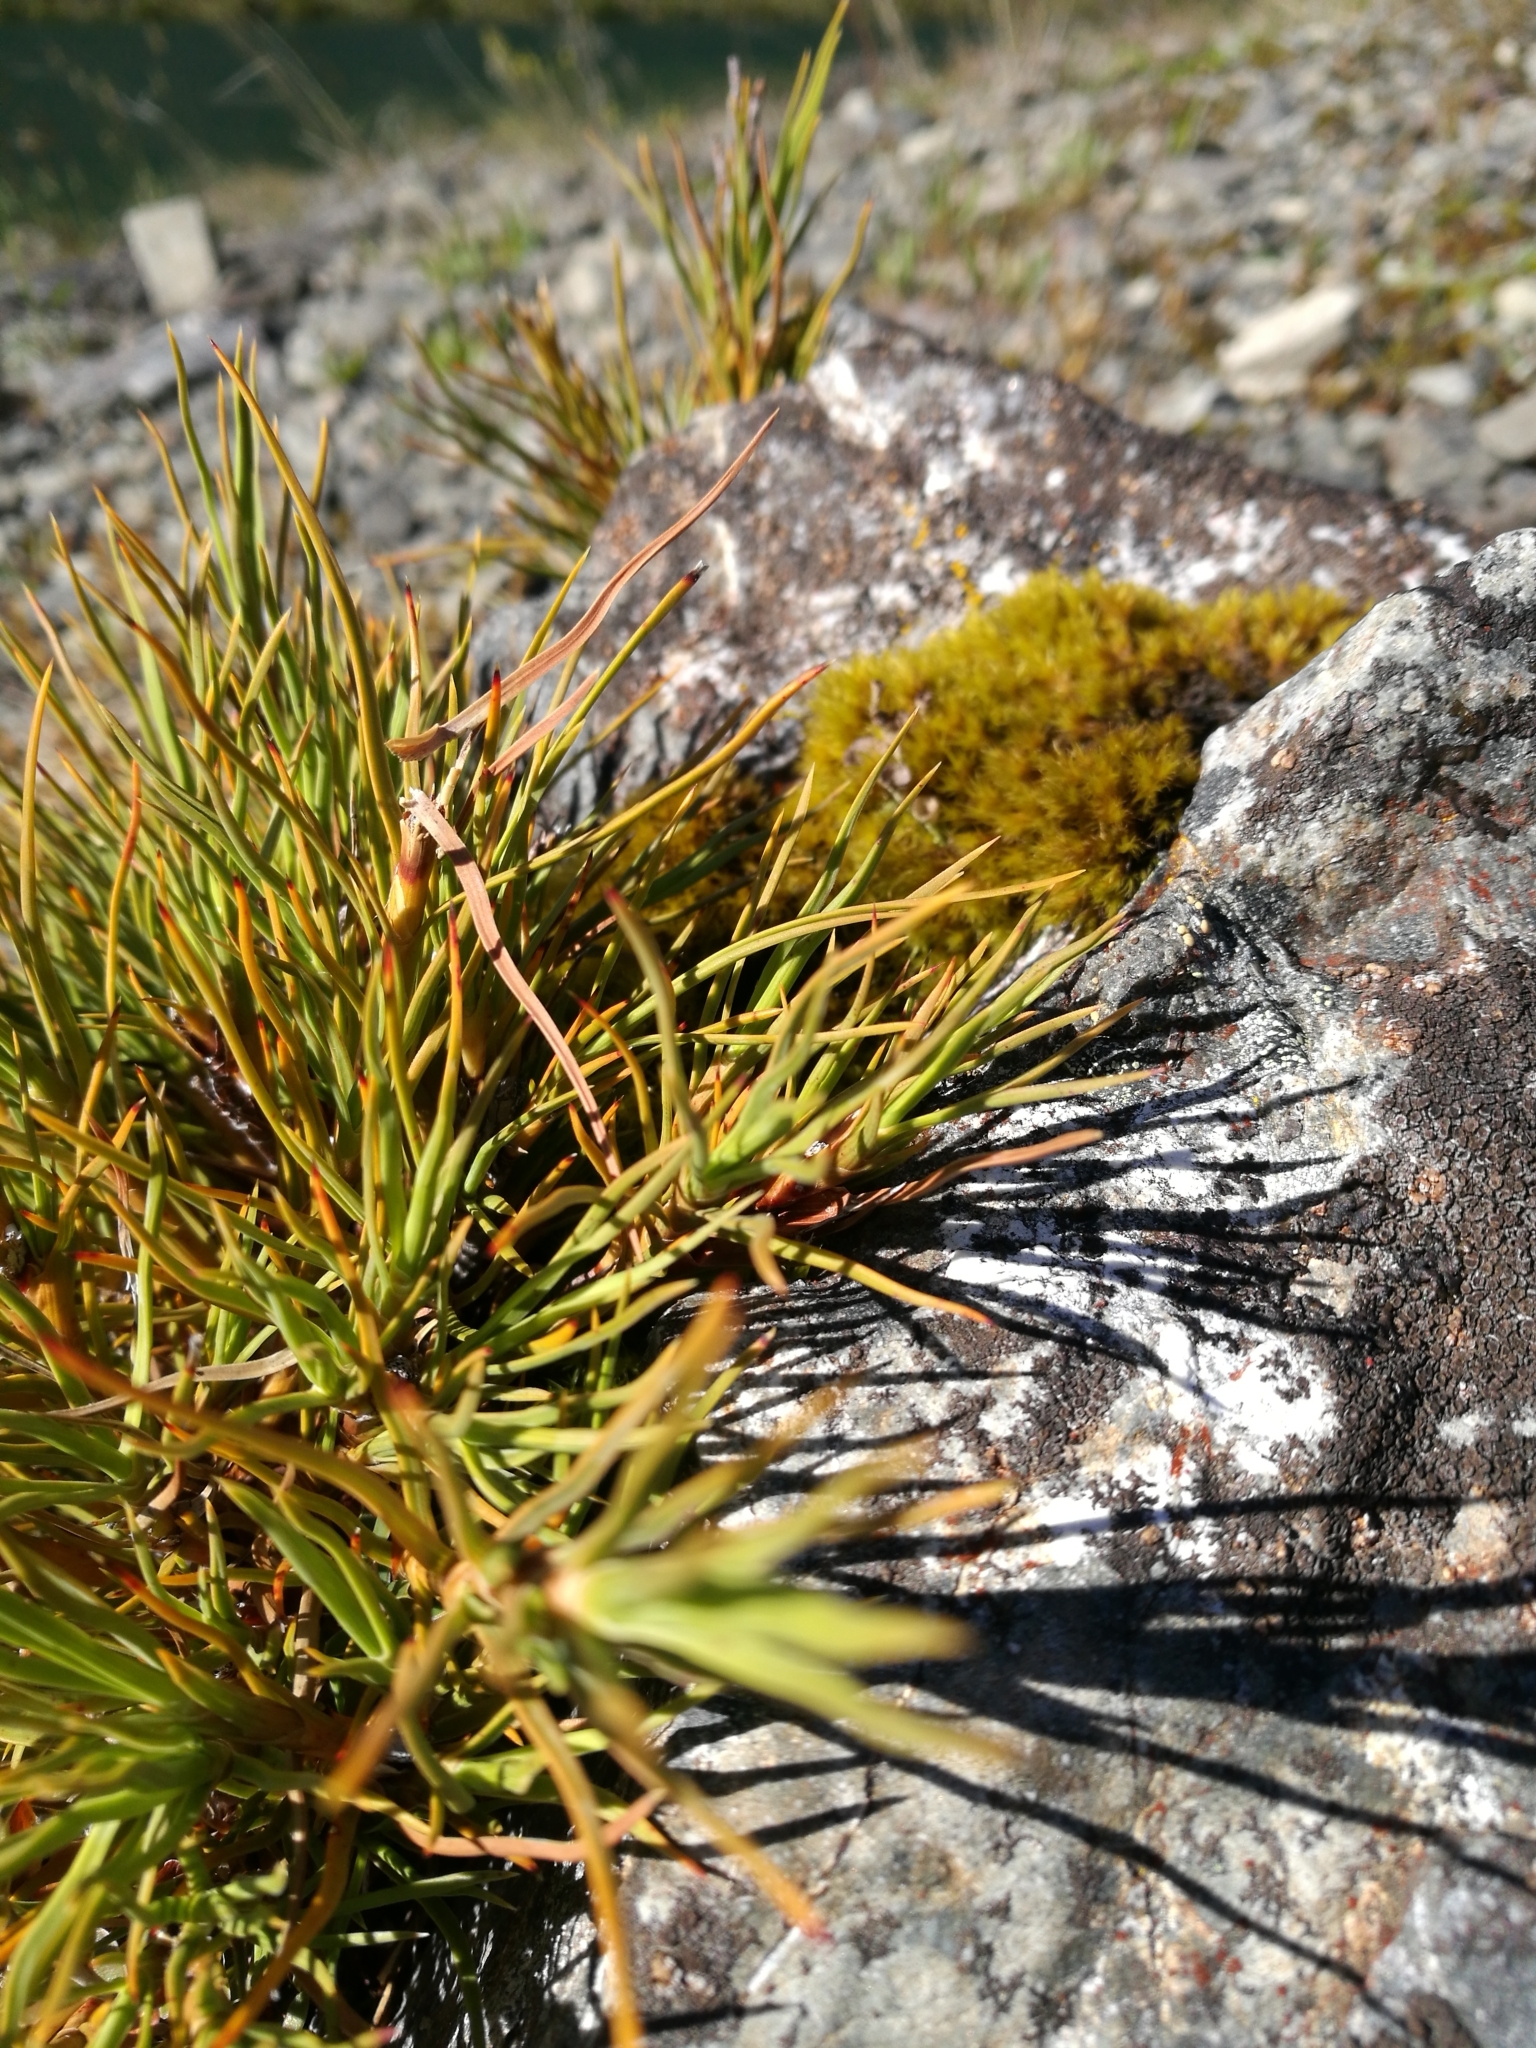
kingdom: Plantae
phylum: Tracheophyta
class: Magnoliopsida
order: Ericales
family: Ericaceae
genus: Dracophyllum
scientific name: Dracophyllum rosmarinifolium
